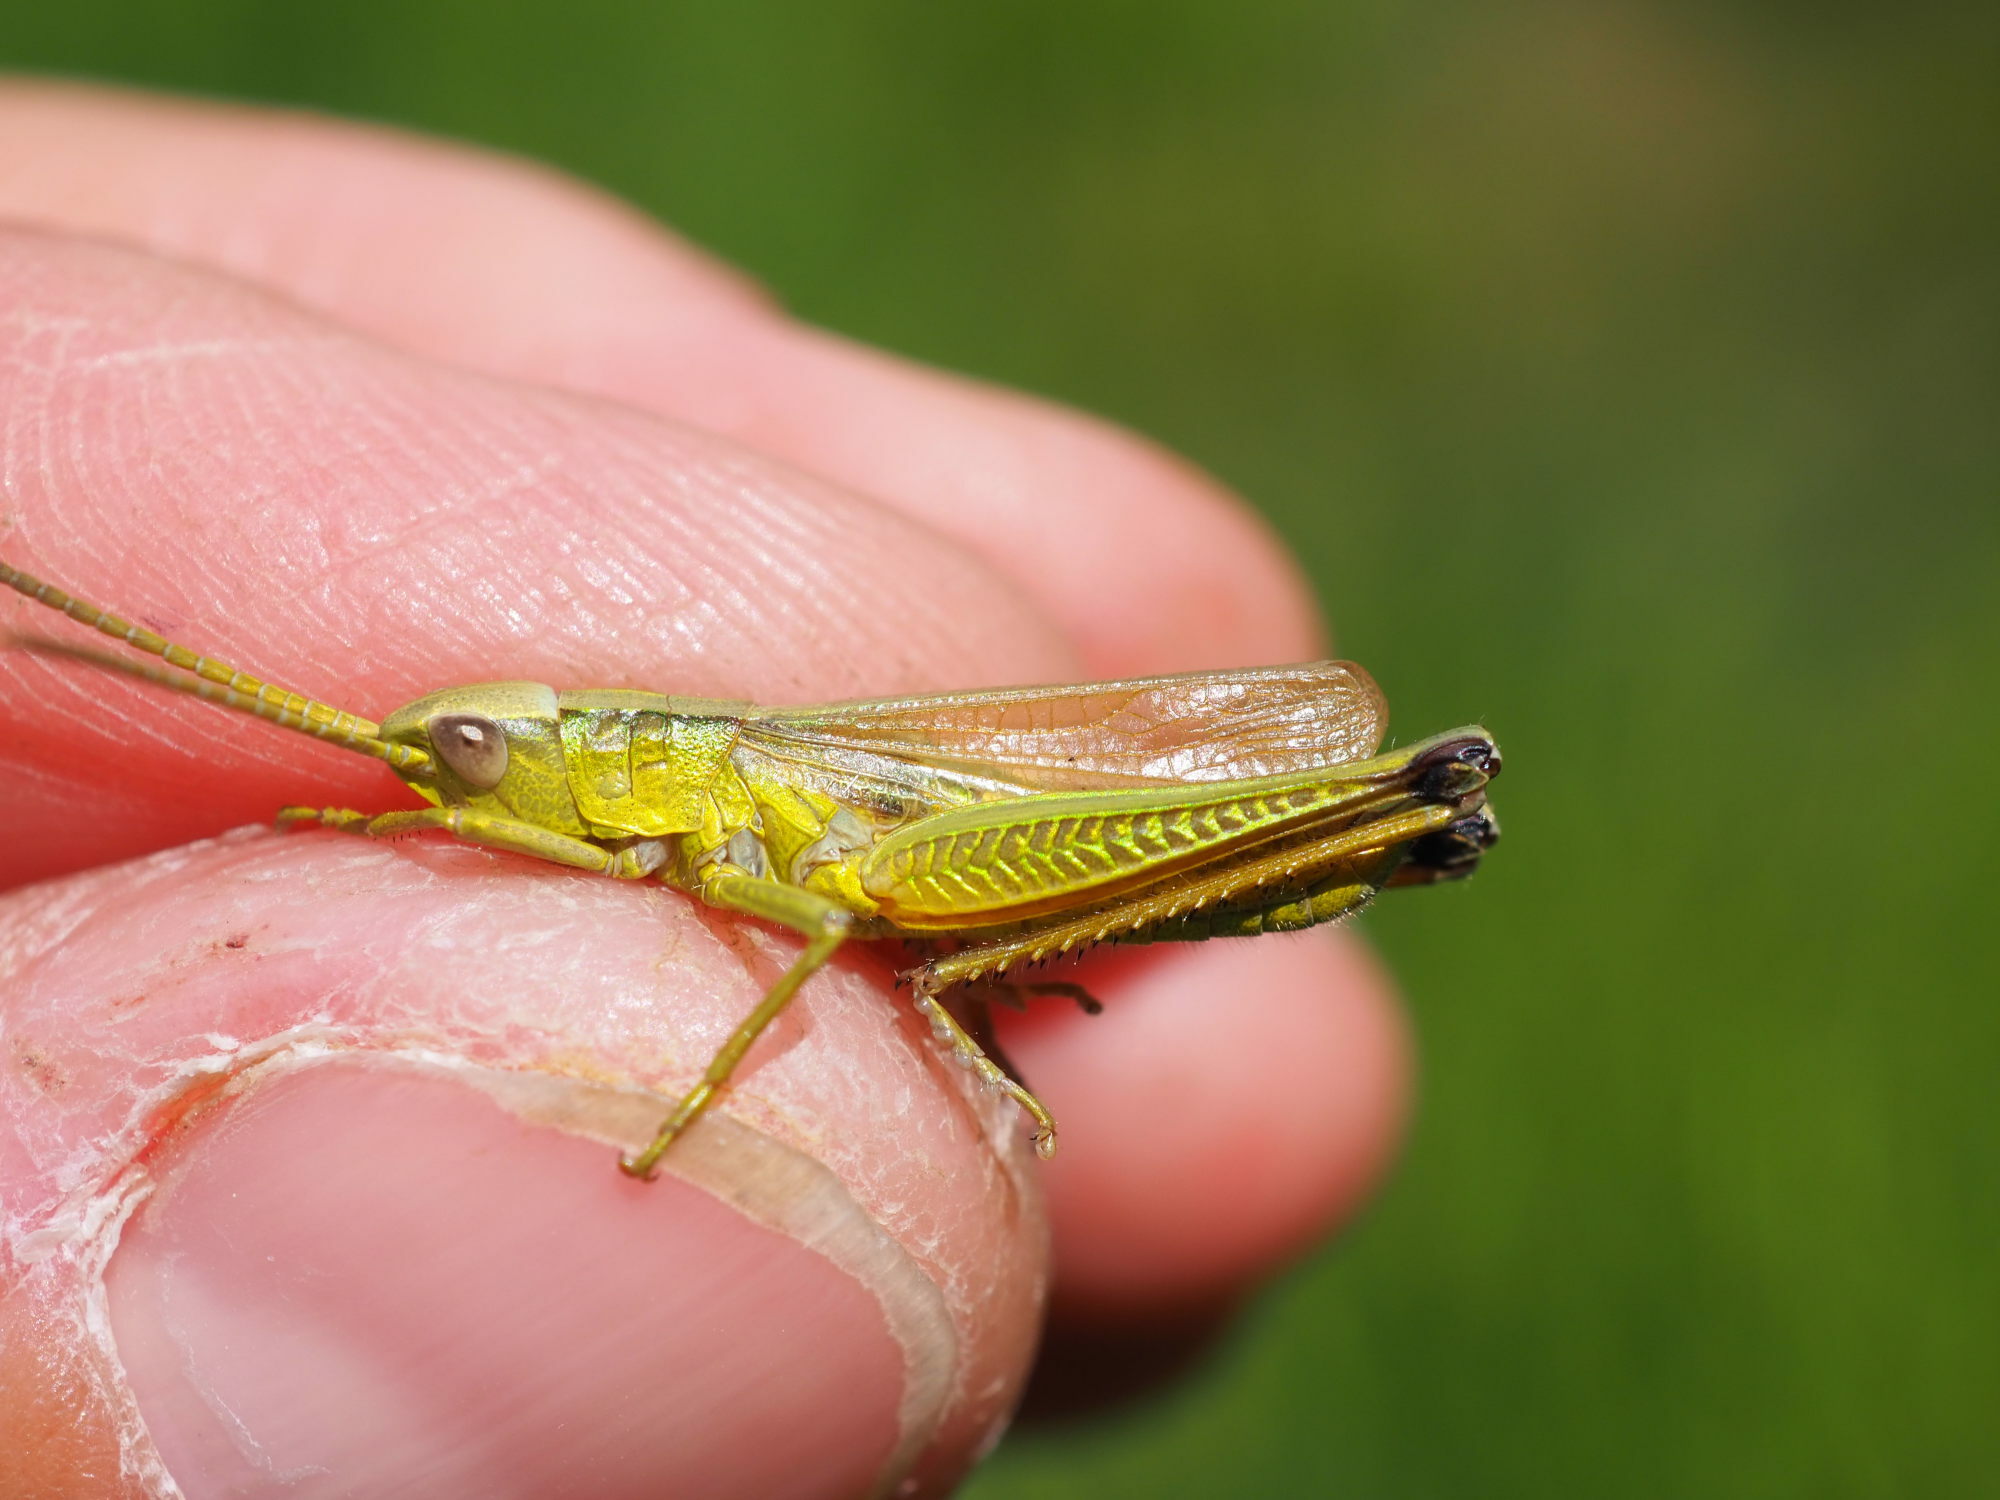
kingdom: Animalia
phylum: Arthropoda
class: Insecta
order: Orthoptera
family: Acrididae
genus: Chrysochraon
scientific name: Chrysochraon dispar
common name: Large gold grasshopper
